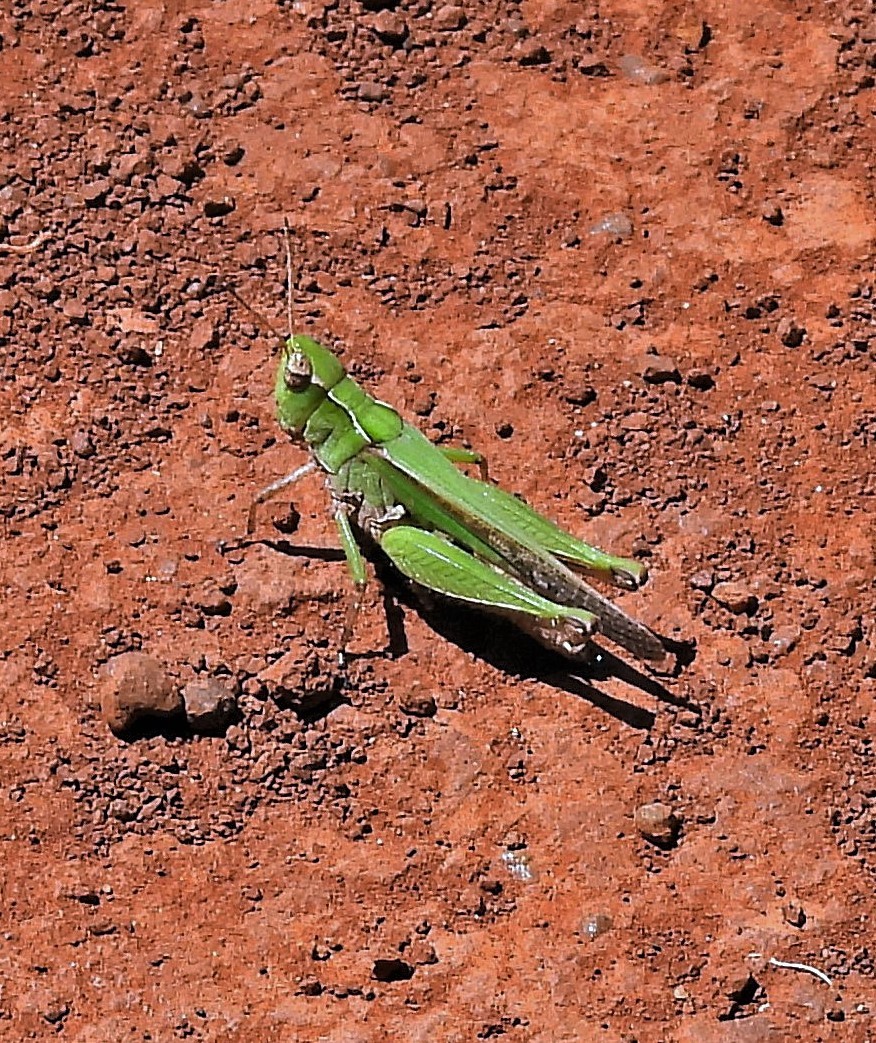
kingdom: Animalia
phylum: Arthropoda
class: Insecta
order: Orthoptera
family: Acrididae
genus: Orphulella
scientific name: Orphulella punctata
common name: Slant-faced grasshopper
